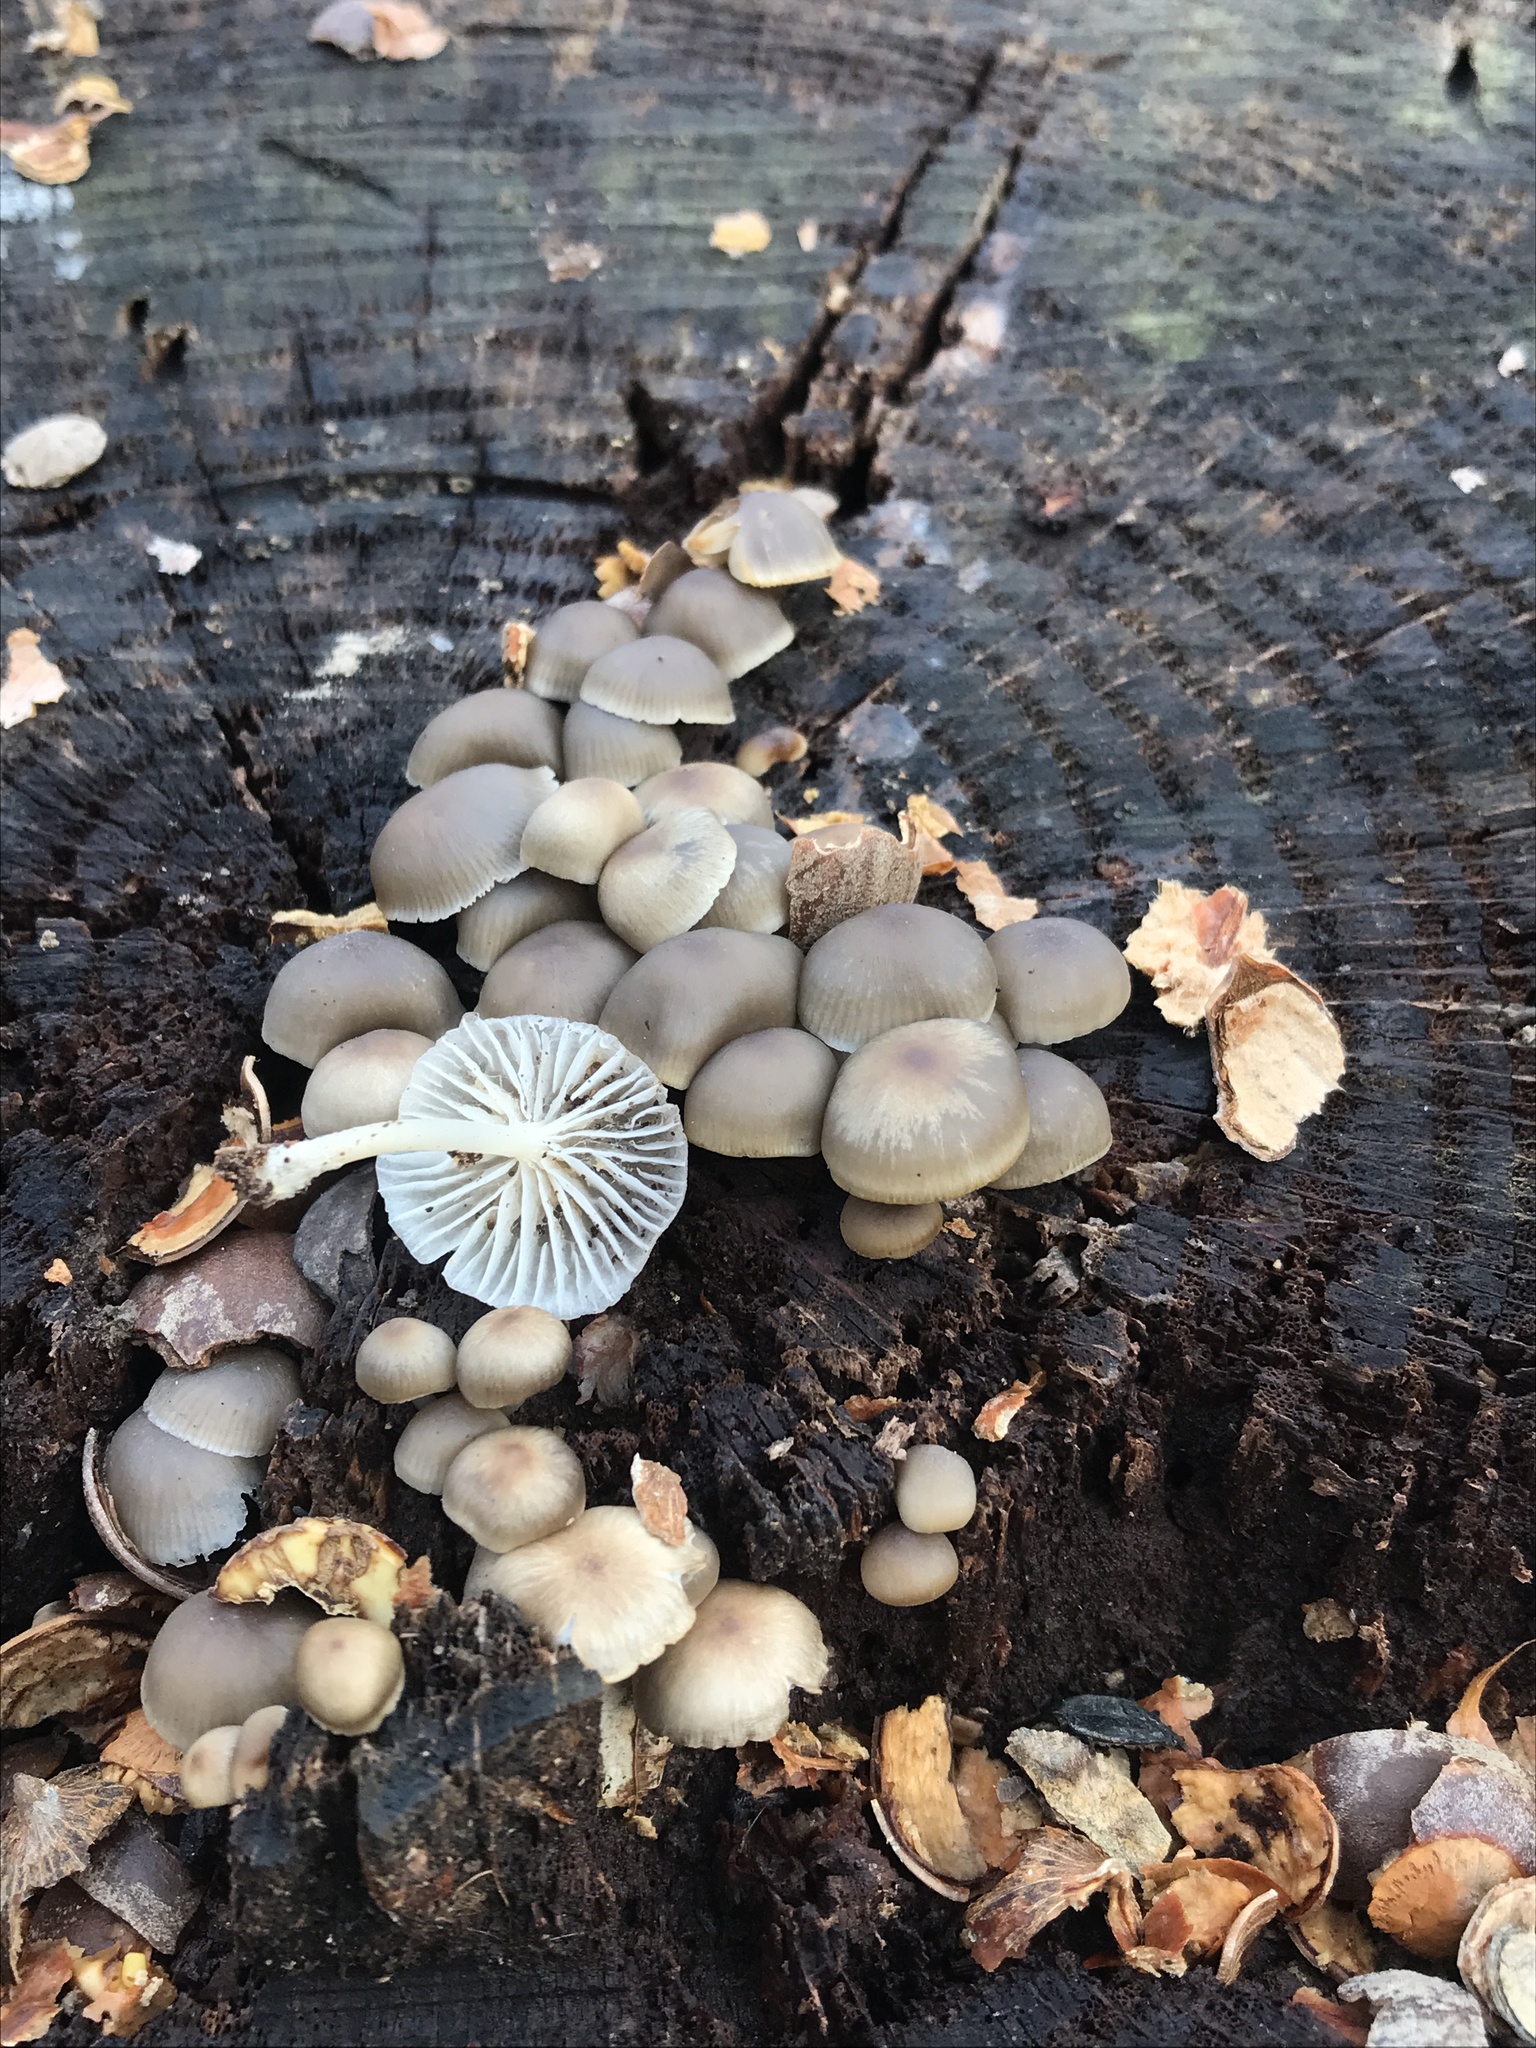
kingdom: Fungi
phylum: Basidiomycota
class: Agaricomycetes
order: Agaricales
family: Mycenaceae
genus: Mycena
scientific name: Mycena overholtsii
